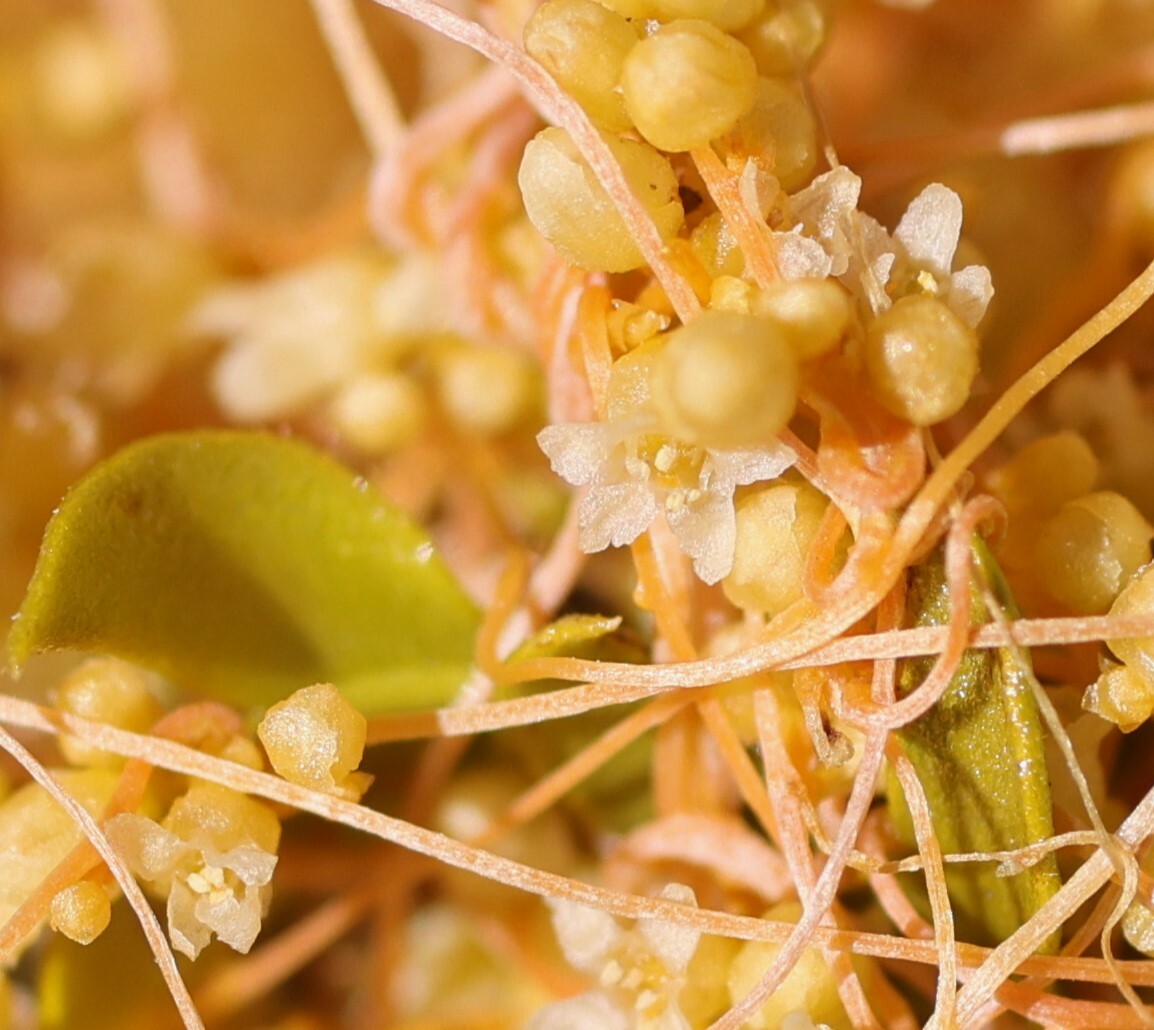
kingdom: Plantae
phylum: Tracheophyta
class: Magnoliopsida
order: Solanales
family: Convolvulaceae
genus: Cuscuta
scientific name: Cuscuta denticulata
